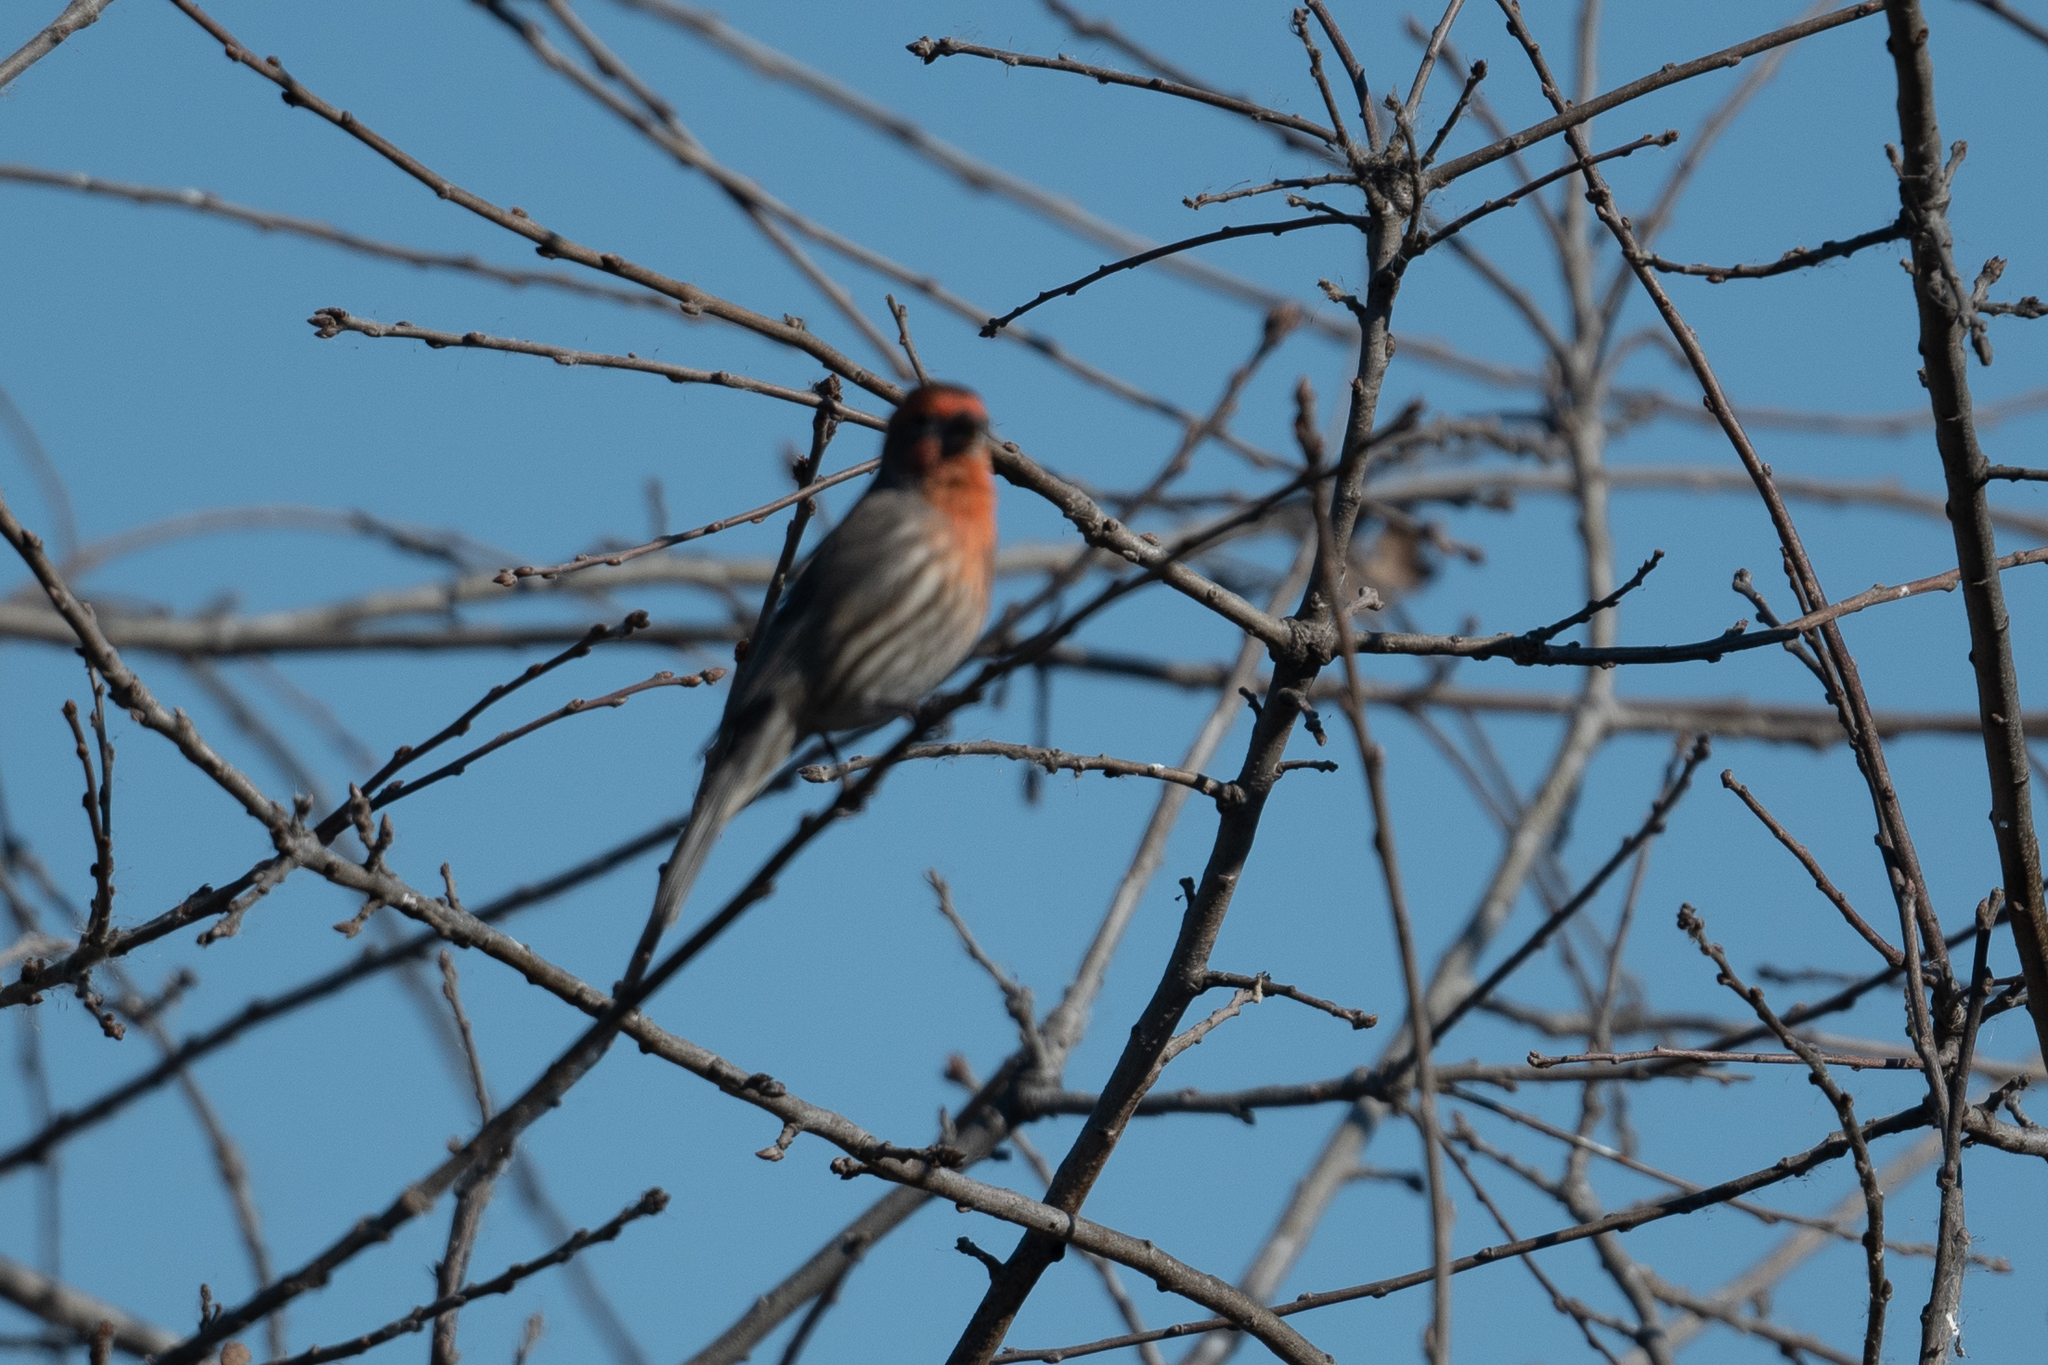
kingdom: Animalia
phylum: Chordata
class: Aves
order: Passeriformes
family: Fringillidae
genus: Haemorhous
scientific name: Haemorhous mexicanus
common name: House finch
